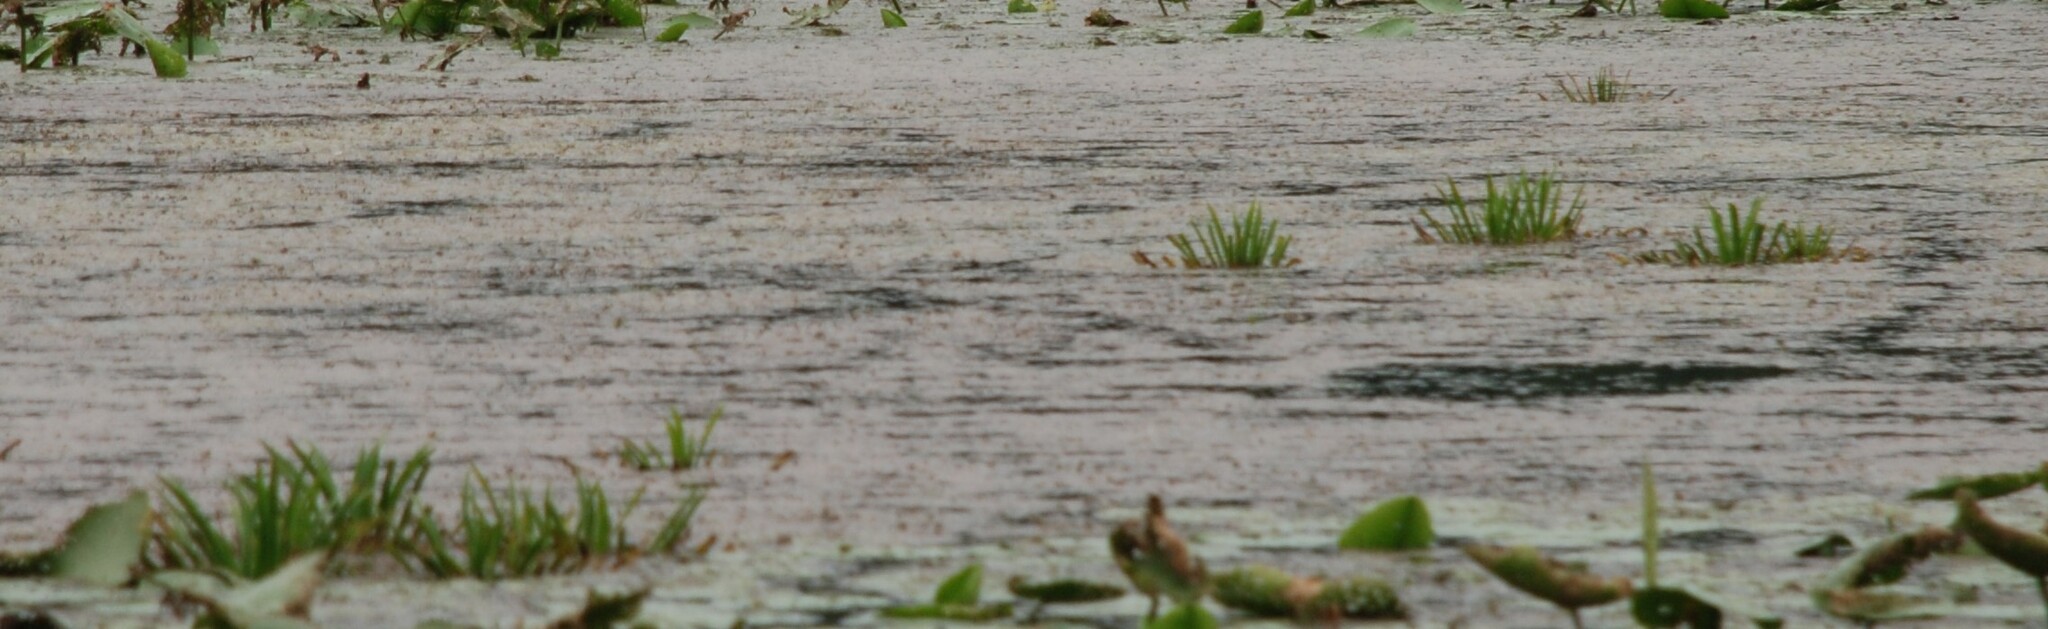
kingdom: Plantae
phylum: Tracheophyta
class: Liliopsida
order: Alismatales
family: Hydrocharitaceae
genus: Stratiotes
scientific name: Stratiotes aloides
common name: Water-soldier
